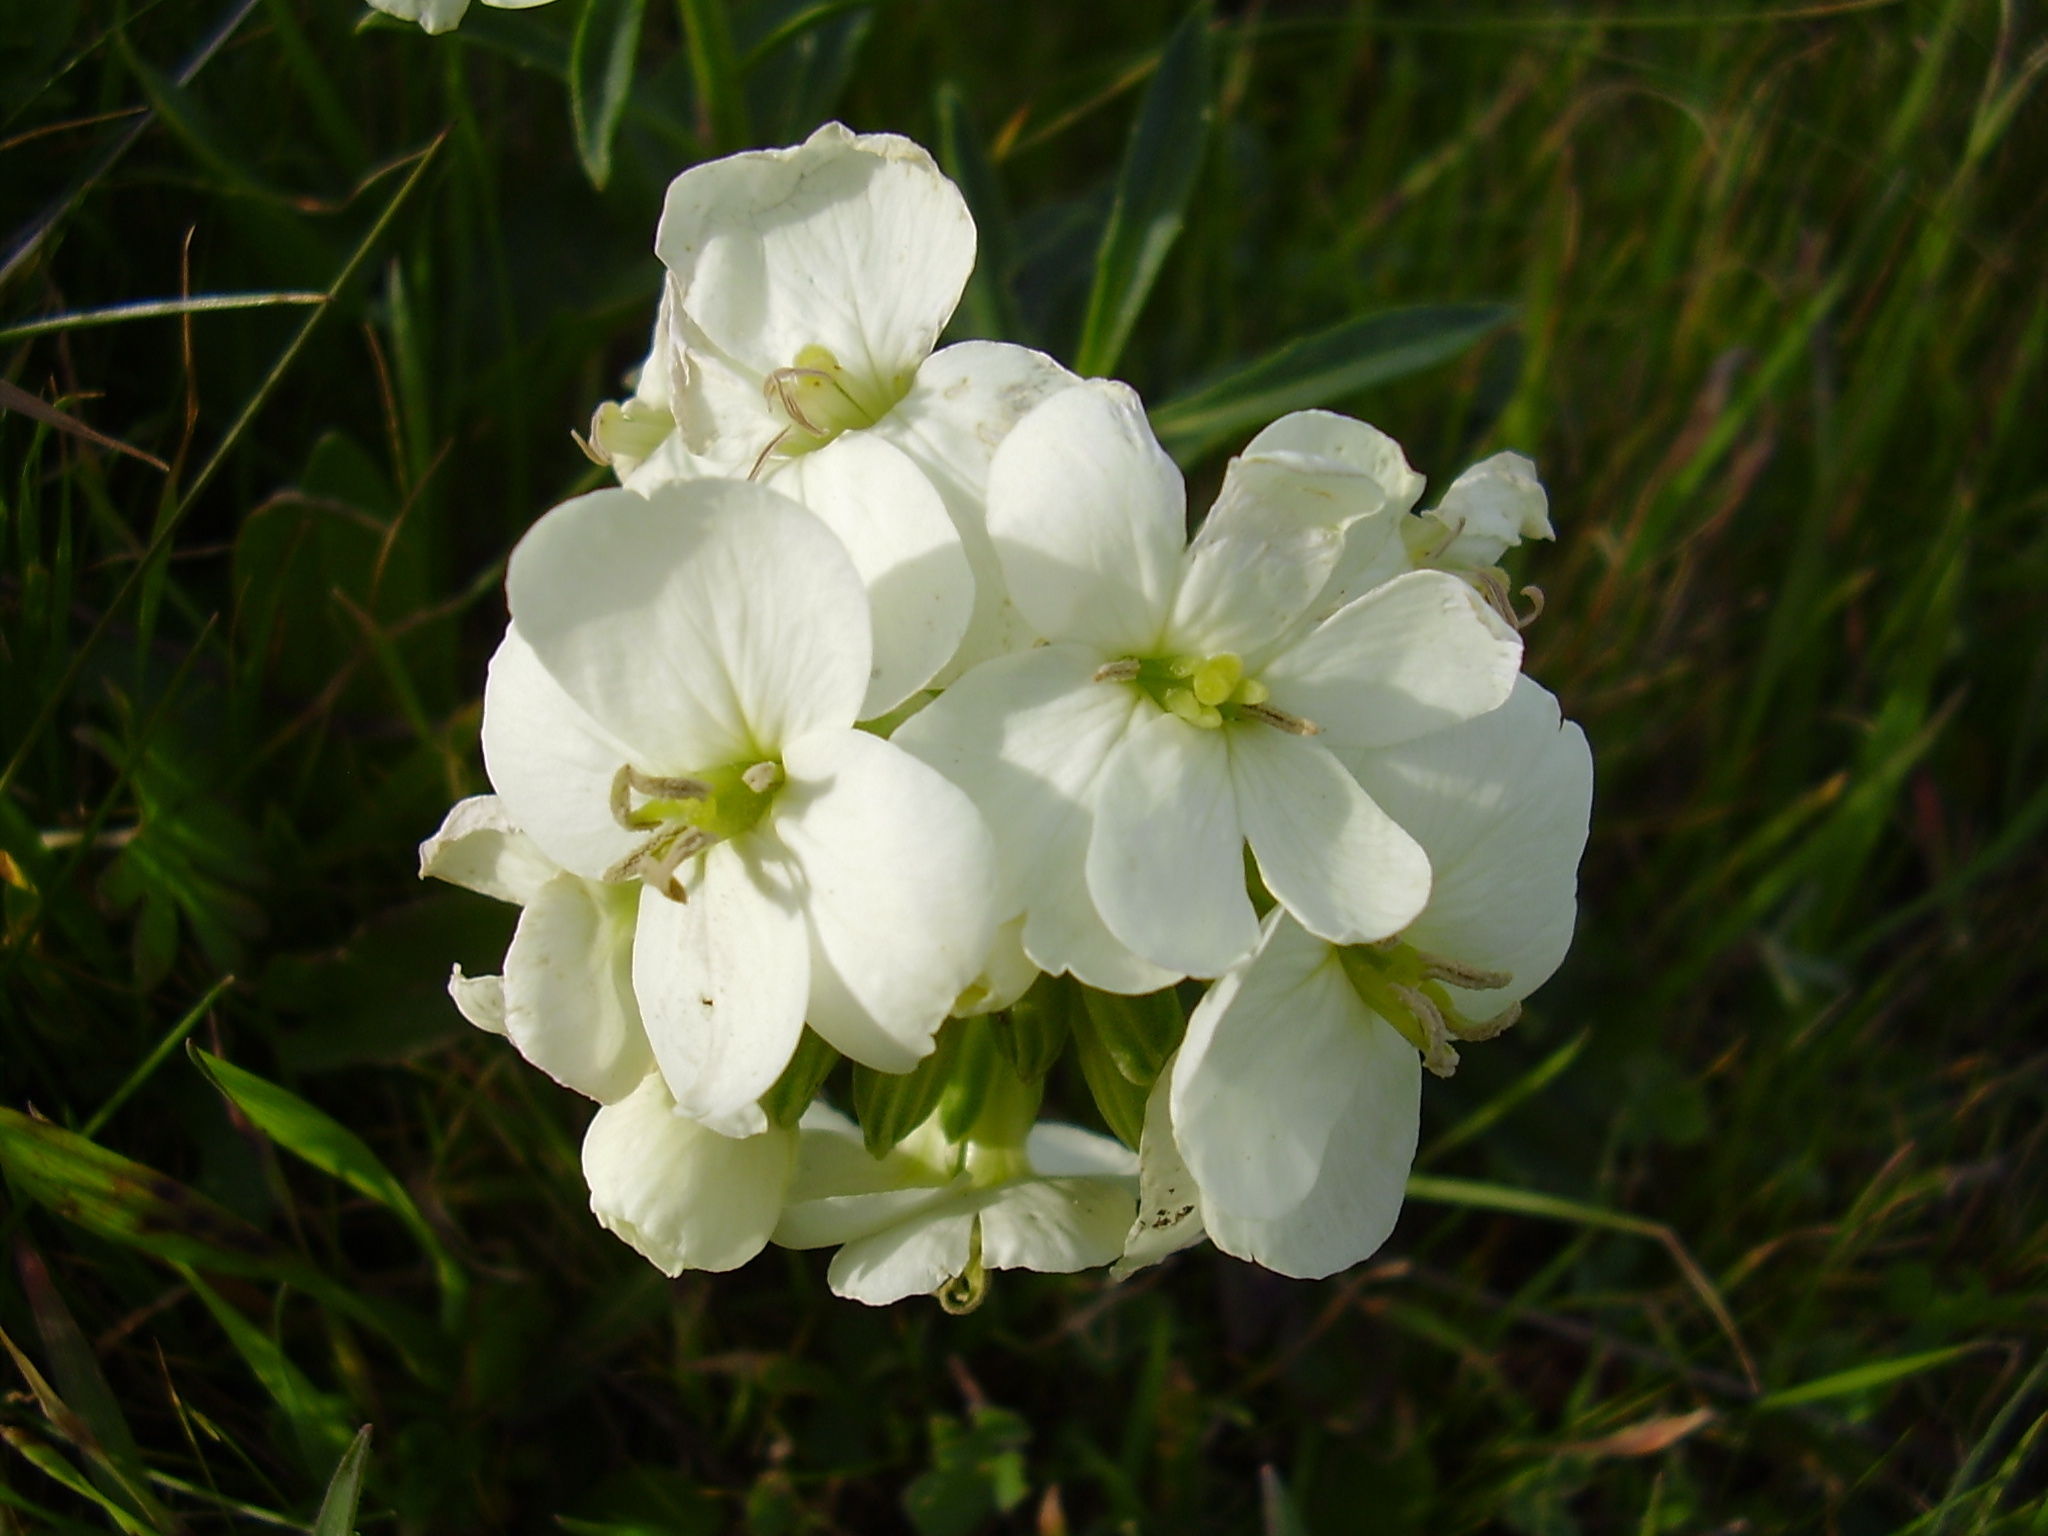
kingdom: Plantae
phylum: Tracheophyta
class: Magnoliopsida
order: Brassicales
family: Brassicaceae
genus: Erysimum
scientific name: Erysimum concinnum
